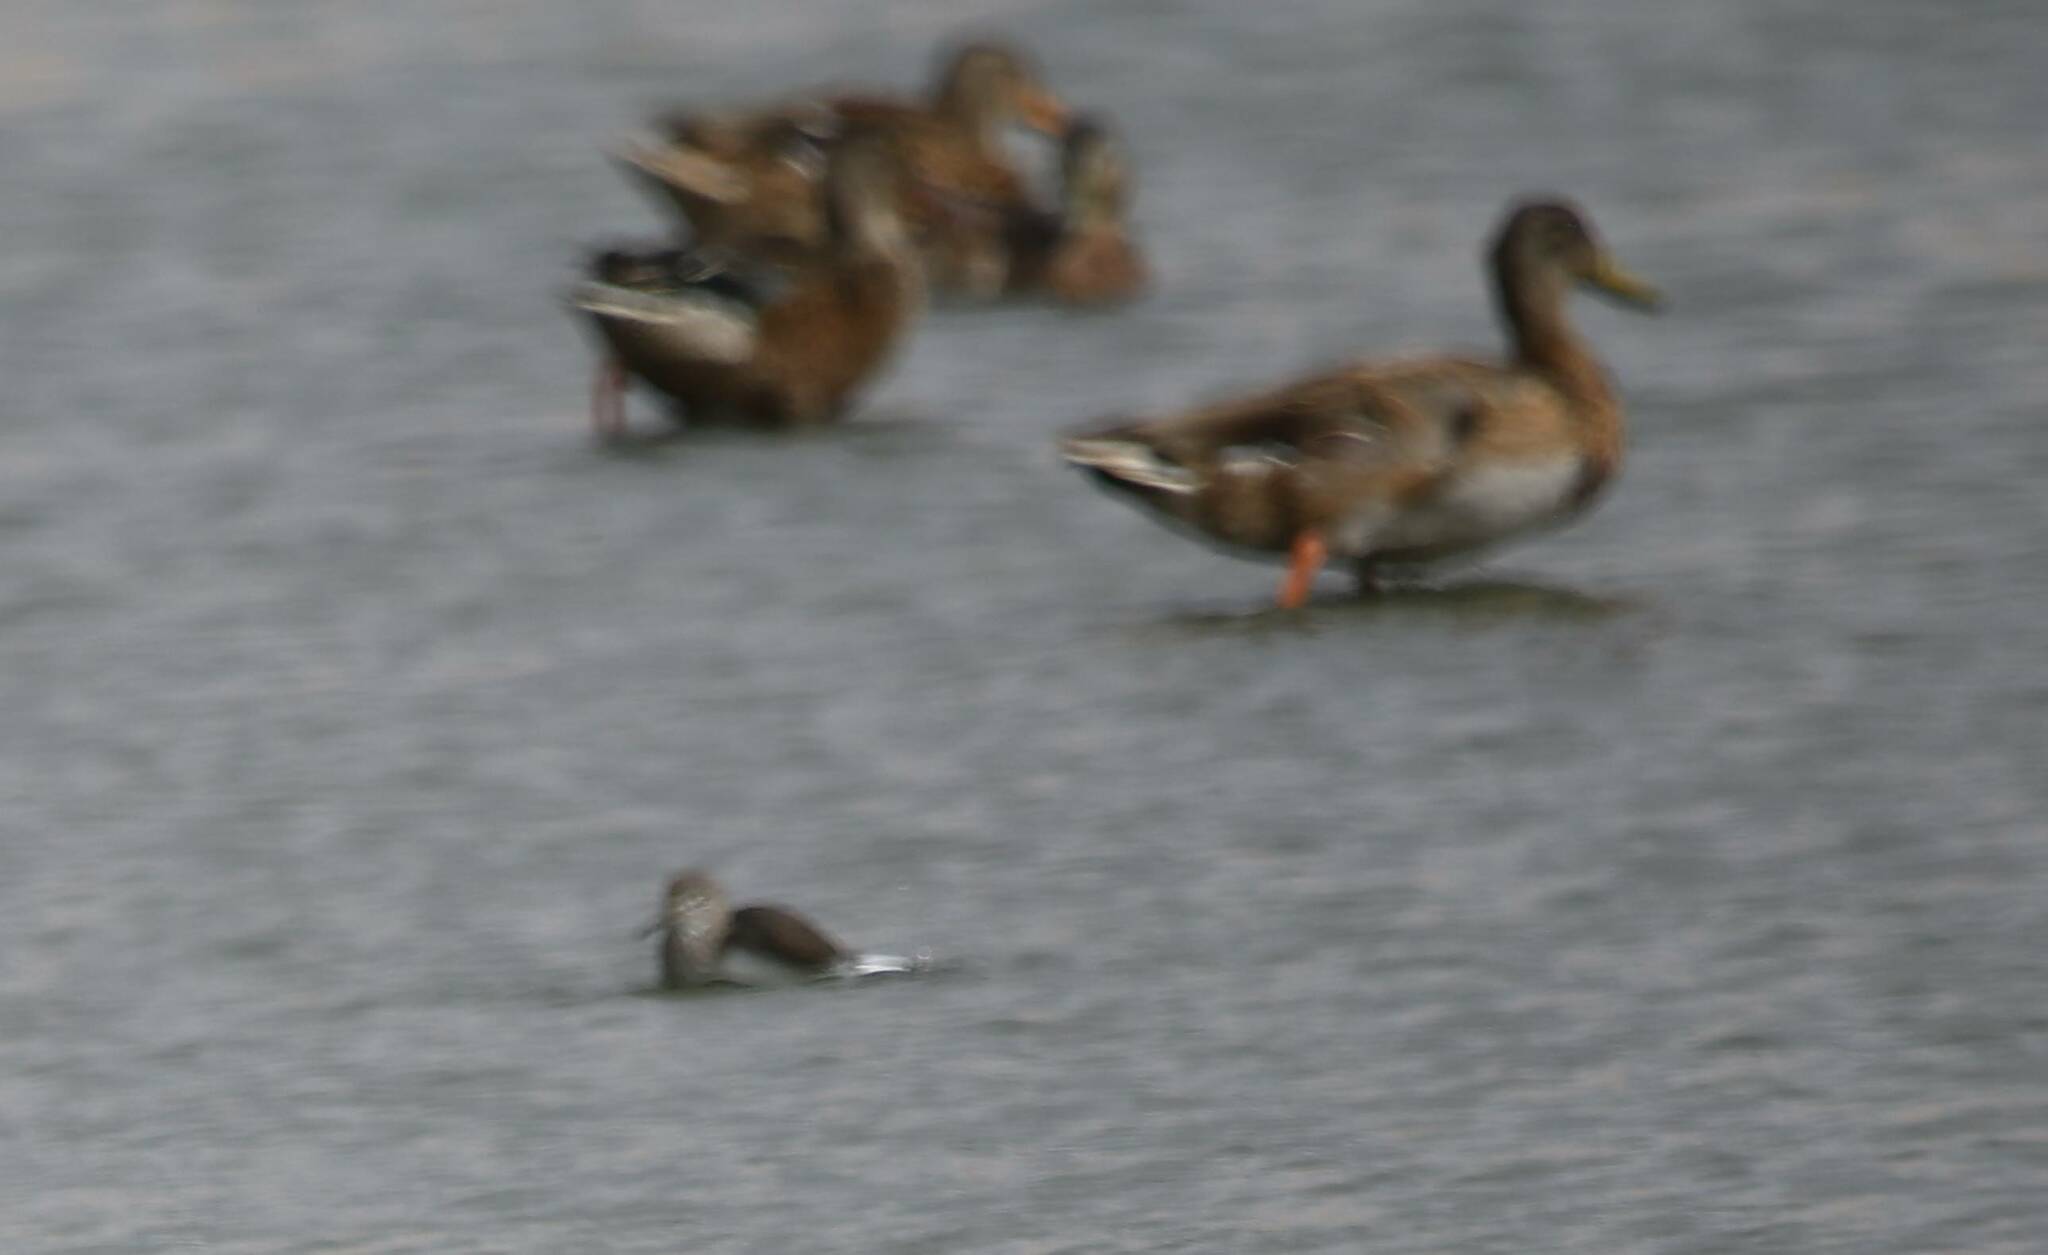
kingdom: Animalia
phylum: Chordata
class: Aves
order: Anseriformes
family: Anatidae
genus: Anas
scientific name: Anas platyrhynchos
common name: Mallard
